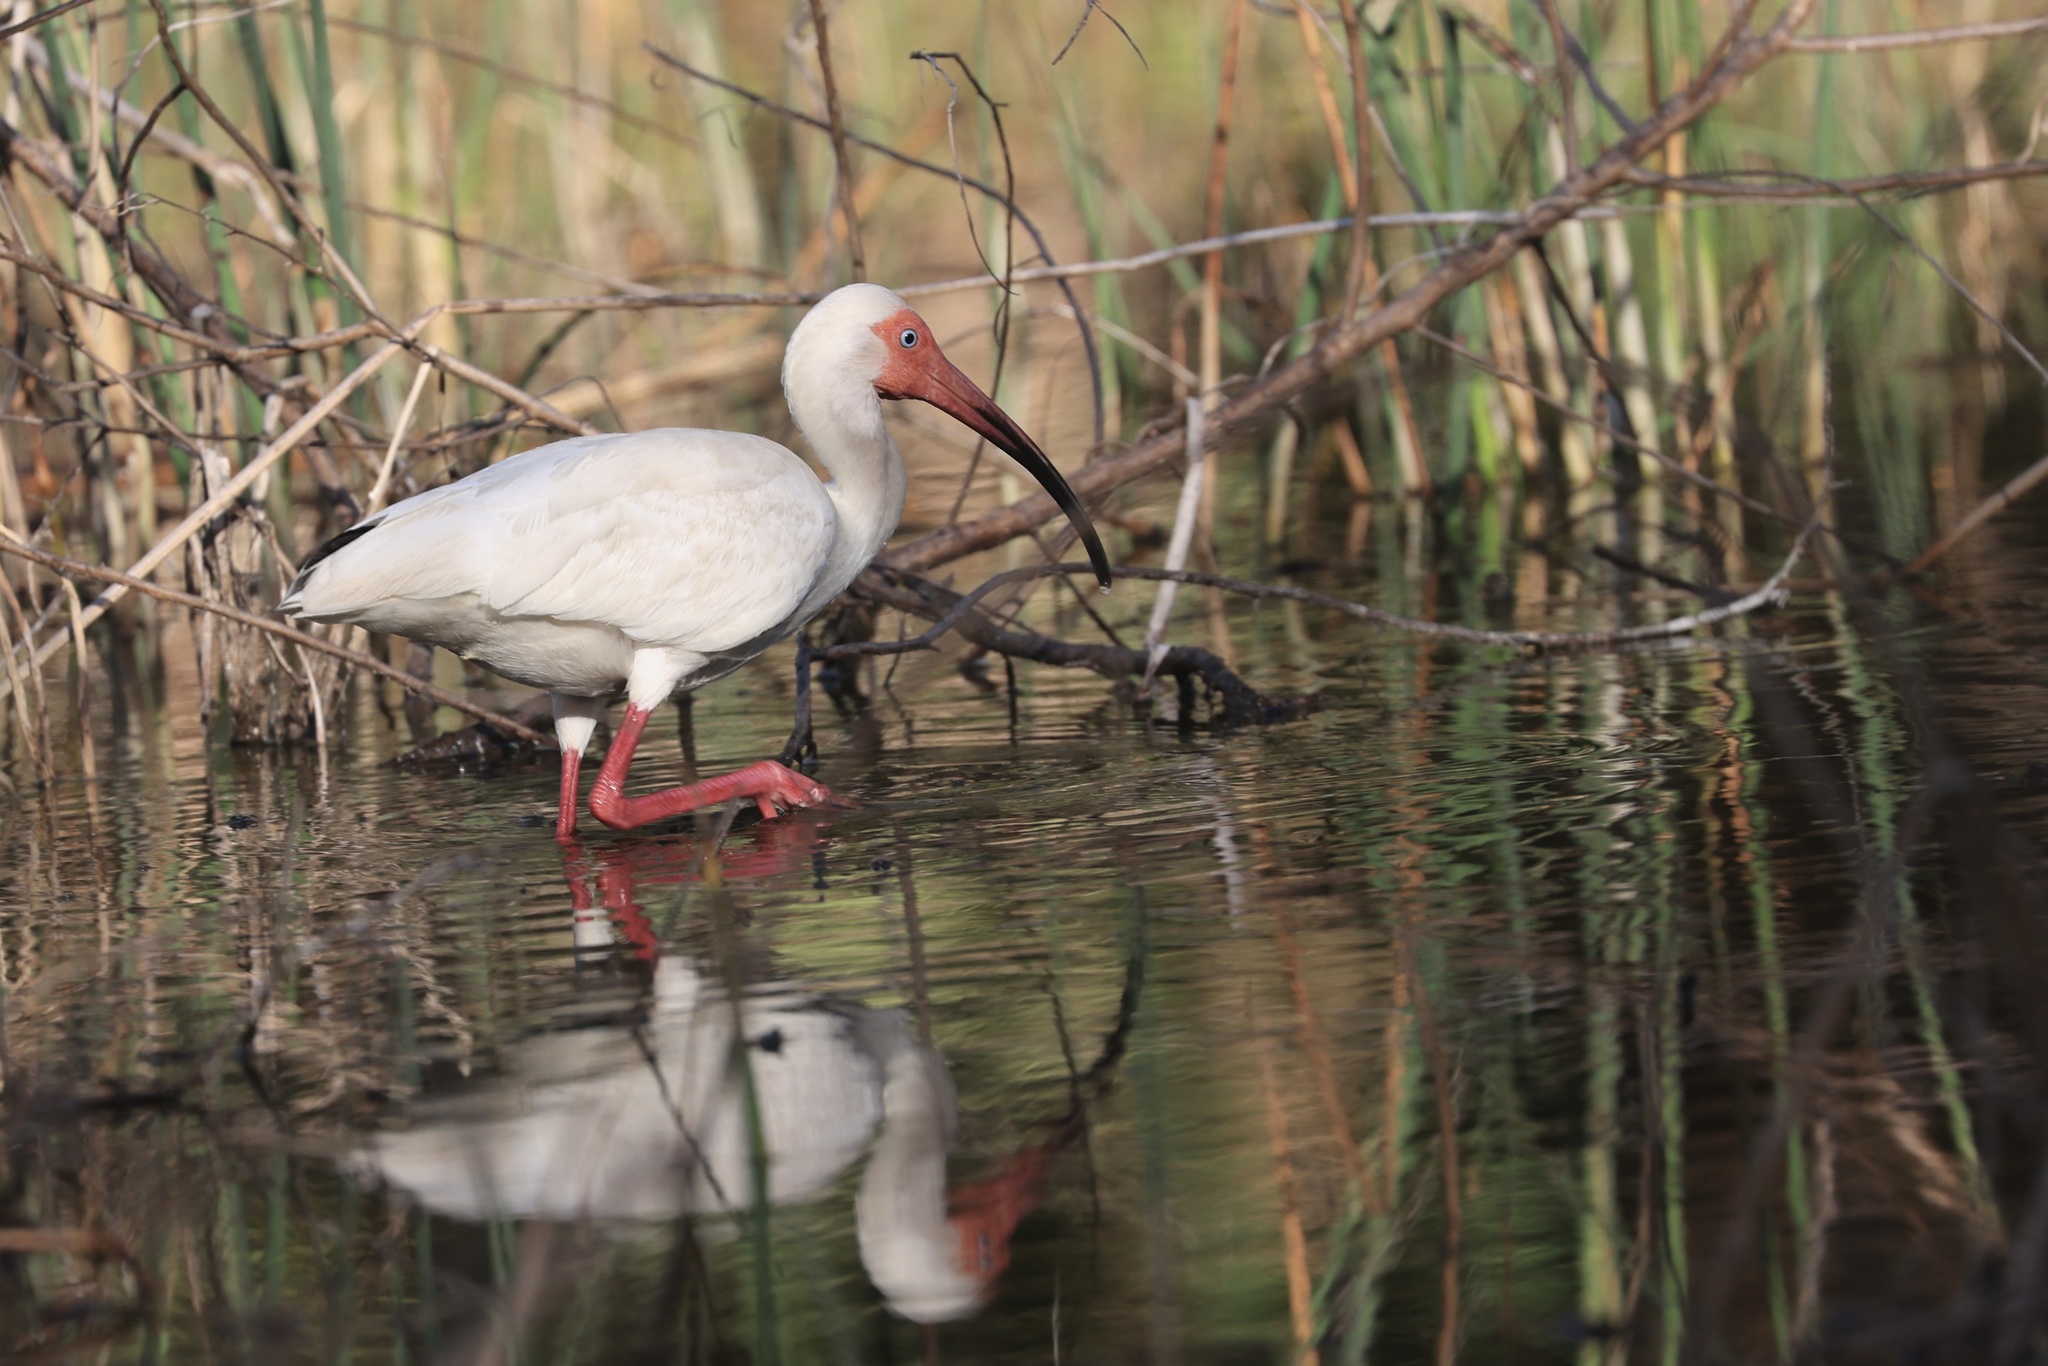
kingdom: Animalia
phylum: Chordata
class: Aves
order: Pelecaniformes
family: Threskiornithidae
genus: Eudocimus
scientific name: Eudocimus albus
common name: White ibis
